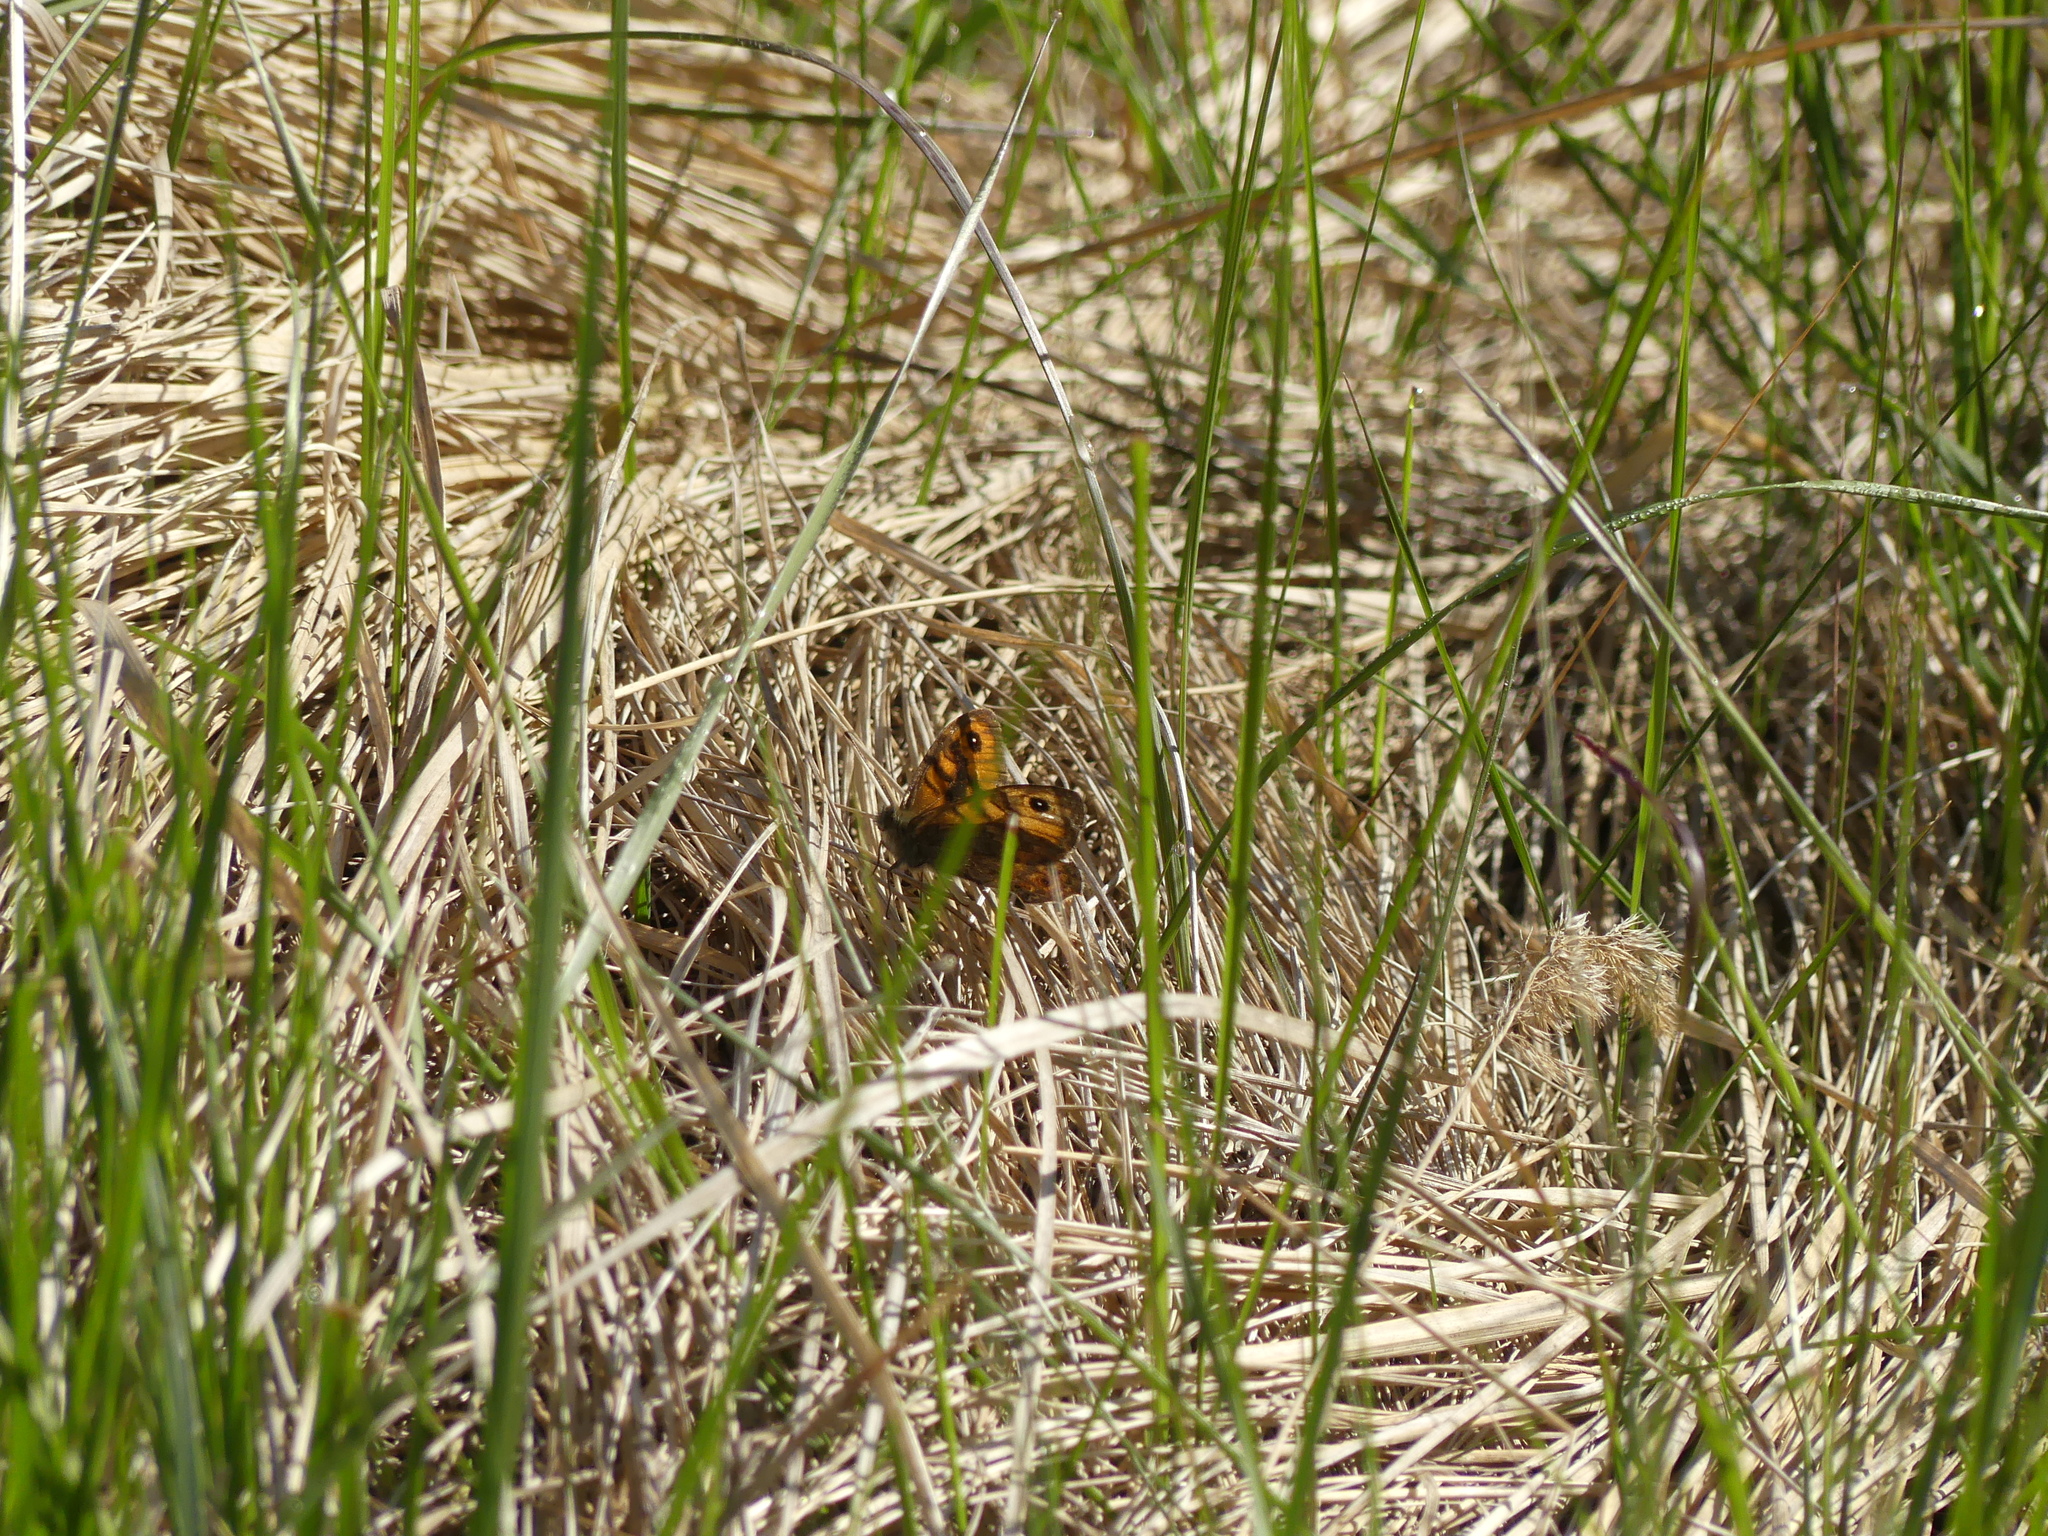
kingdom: Animalia
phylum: Arthropoda
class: Insecta
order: Lepidoptera
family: Nymphalidae
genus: Pararge
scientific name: Pararge Lasiommata megera
